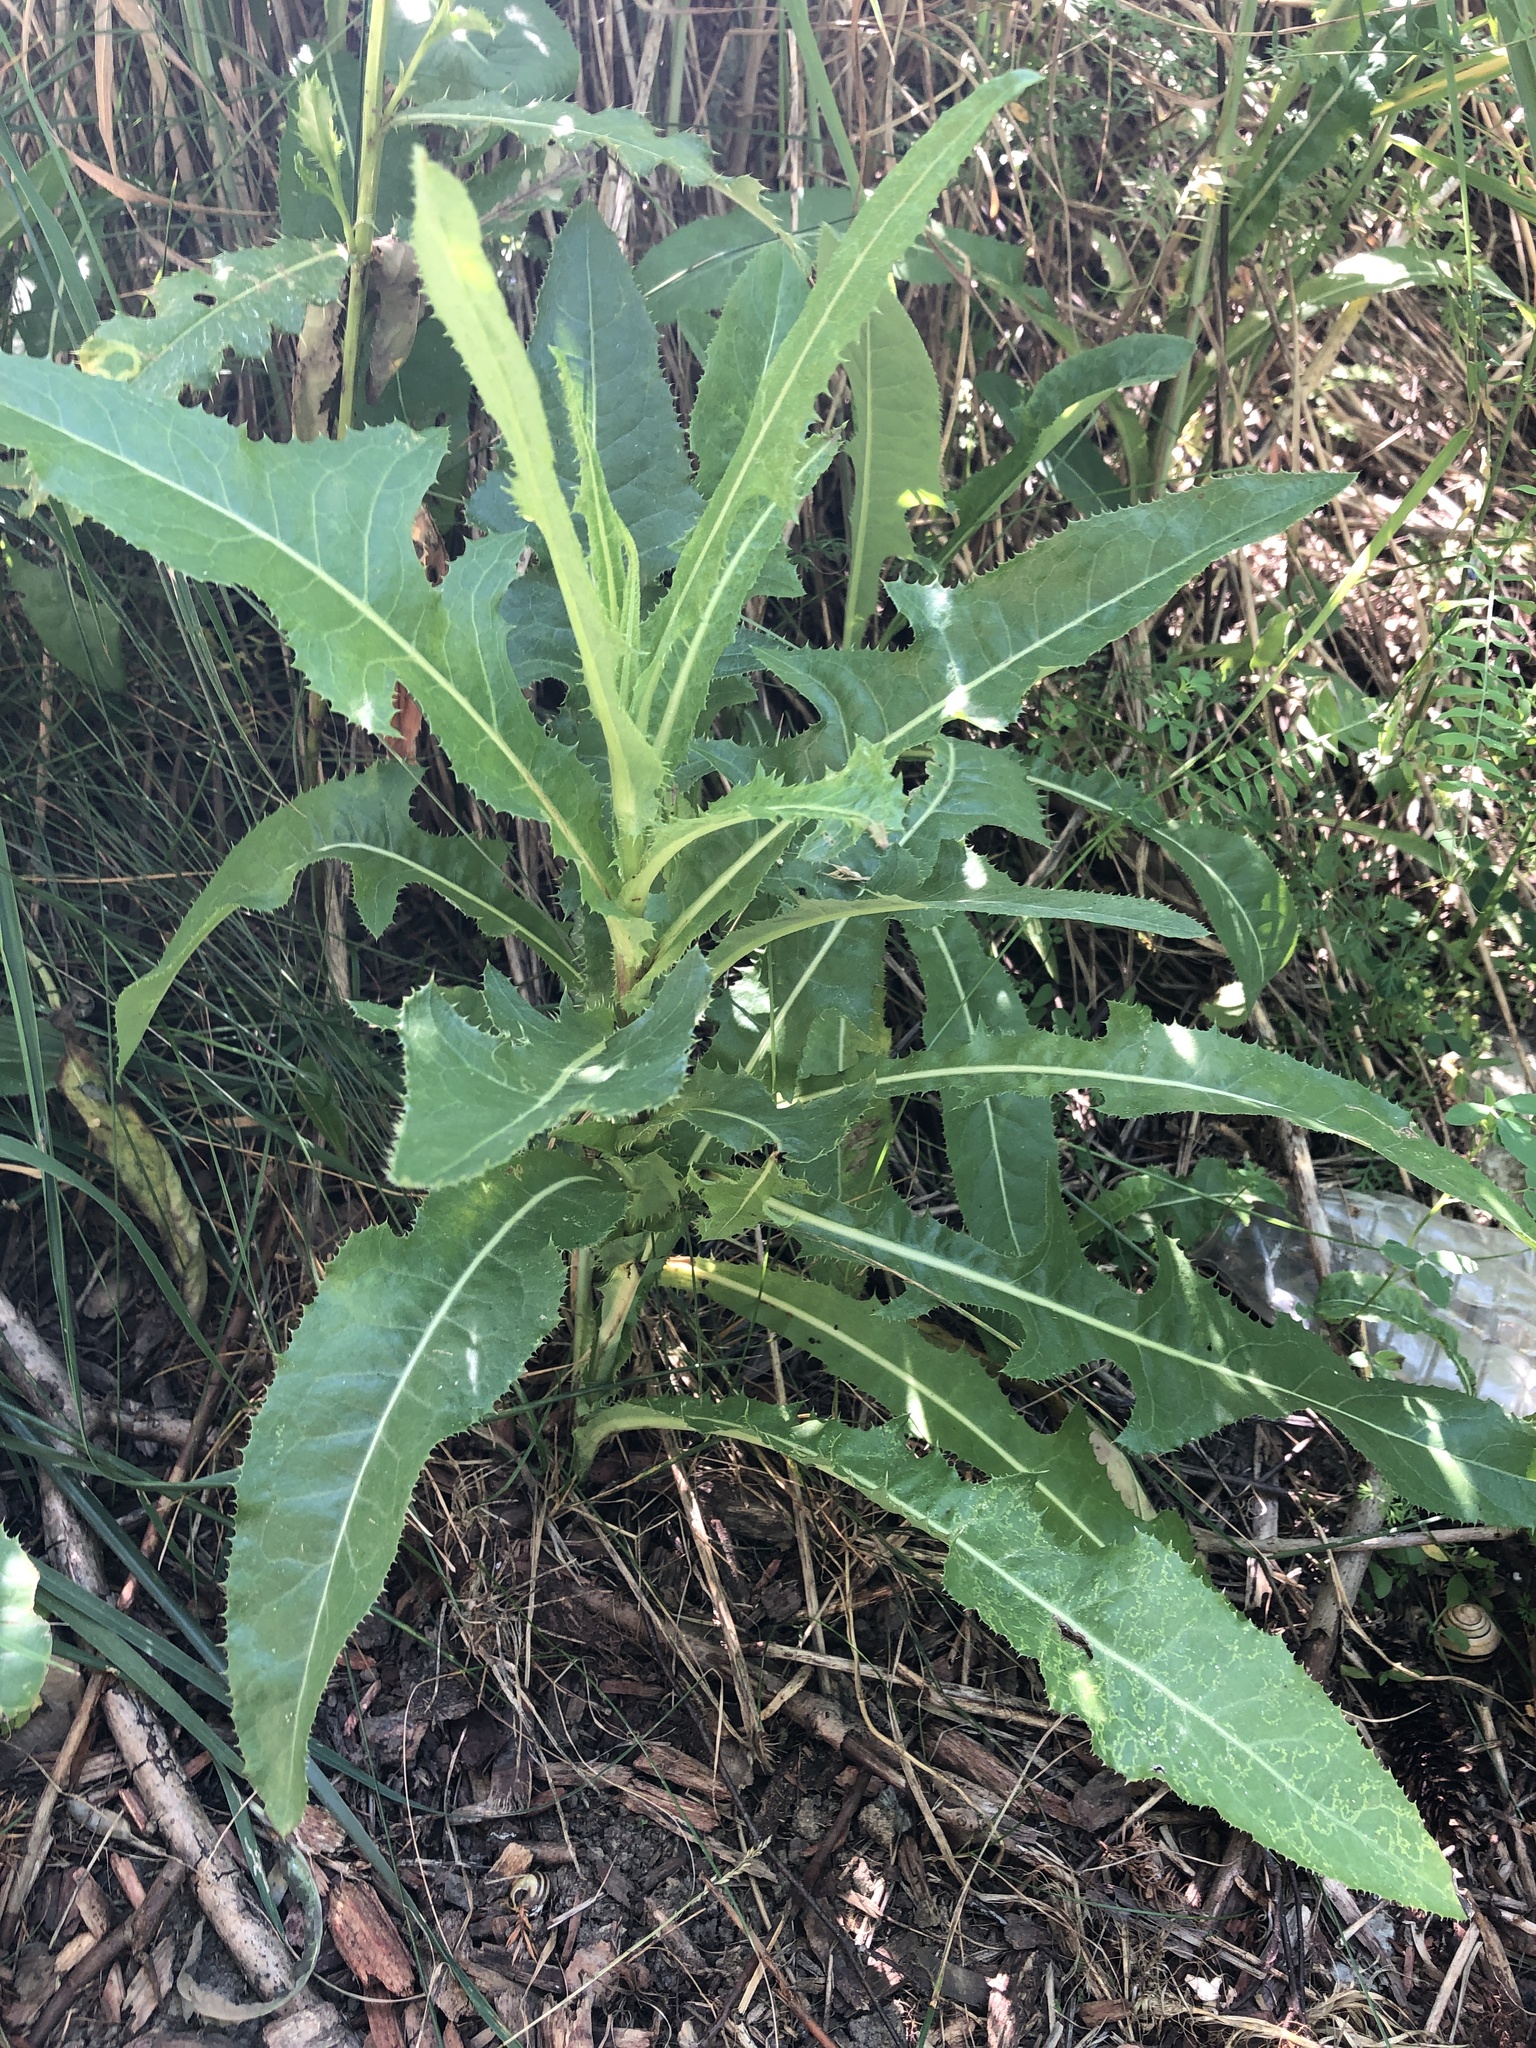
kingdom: Plantae
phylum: Tracheophyta
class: Magnoliopsida
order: Asterales
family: Asteraceae
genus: Sonchus
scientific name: Sonchus arvensis
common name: Perennial sow-thistle
